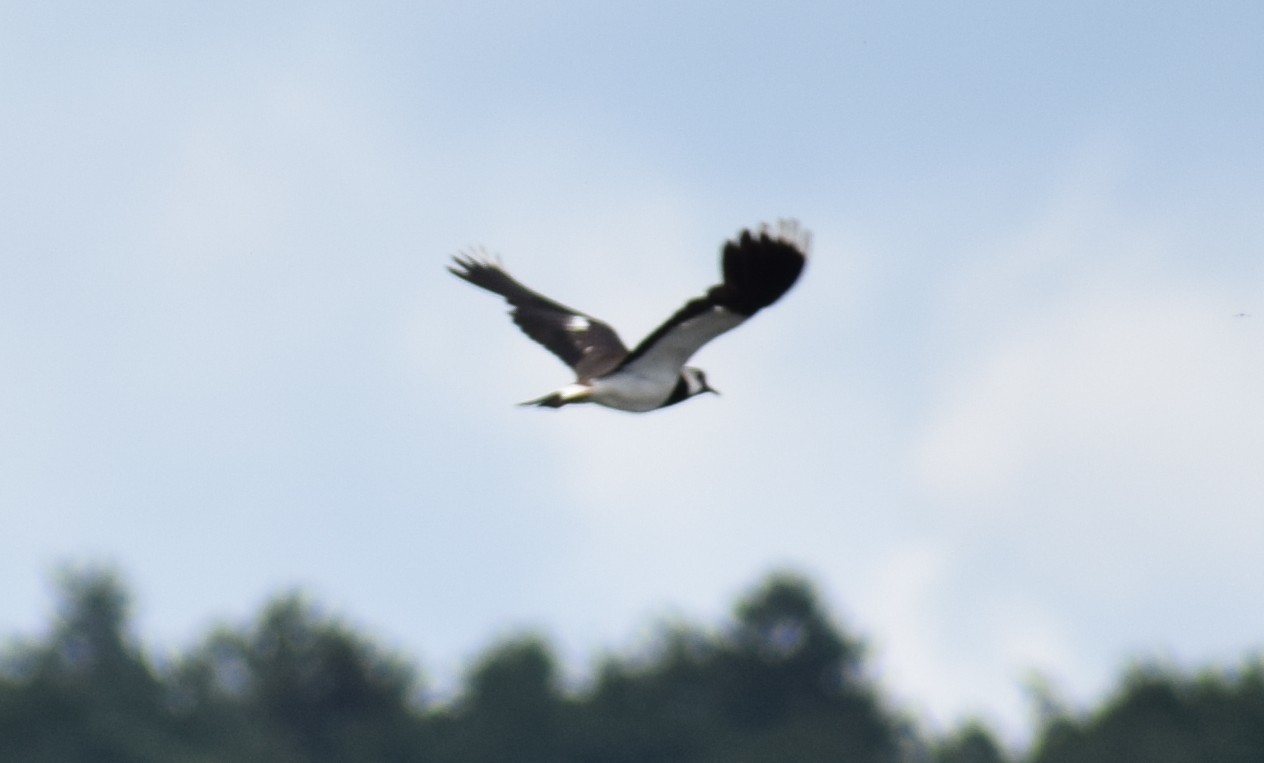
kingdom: Animalia
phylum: Chordata
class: Aves
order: Charadriiformes
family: Charadriidae
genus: Vanellus
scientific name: Vanellus vanellus
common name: Northern lapwing
